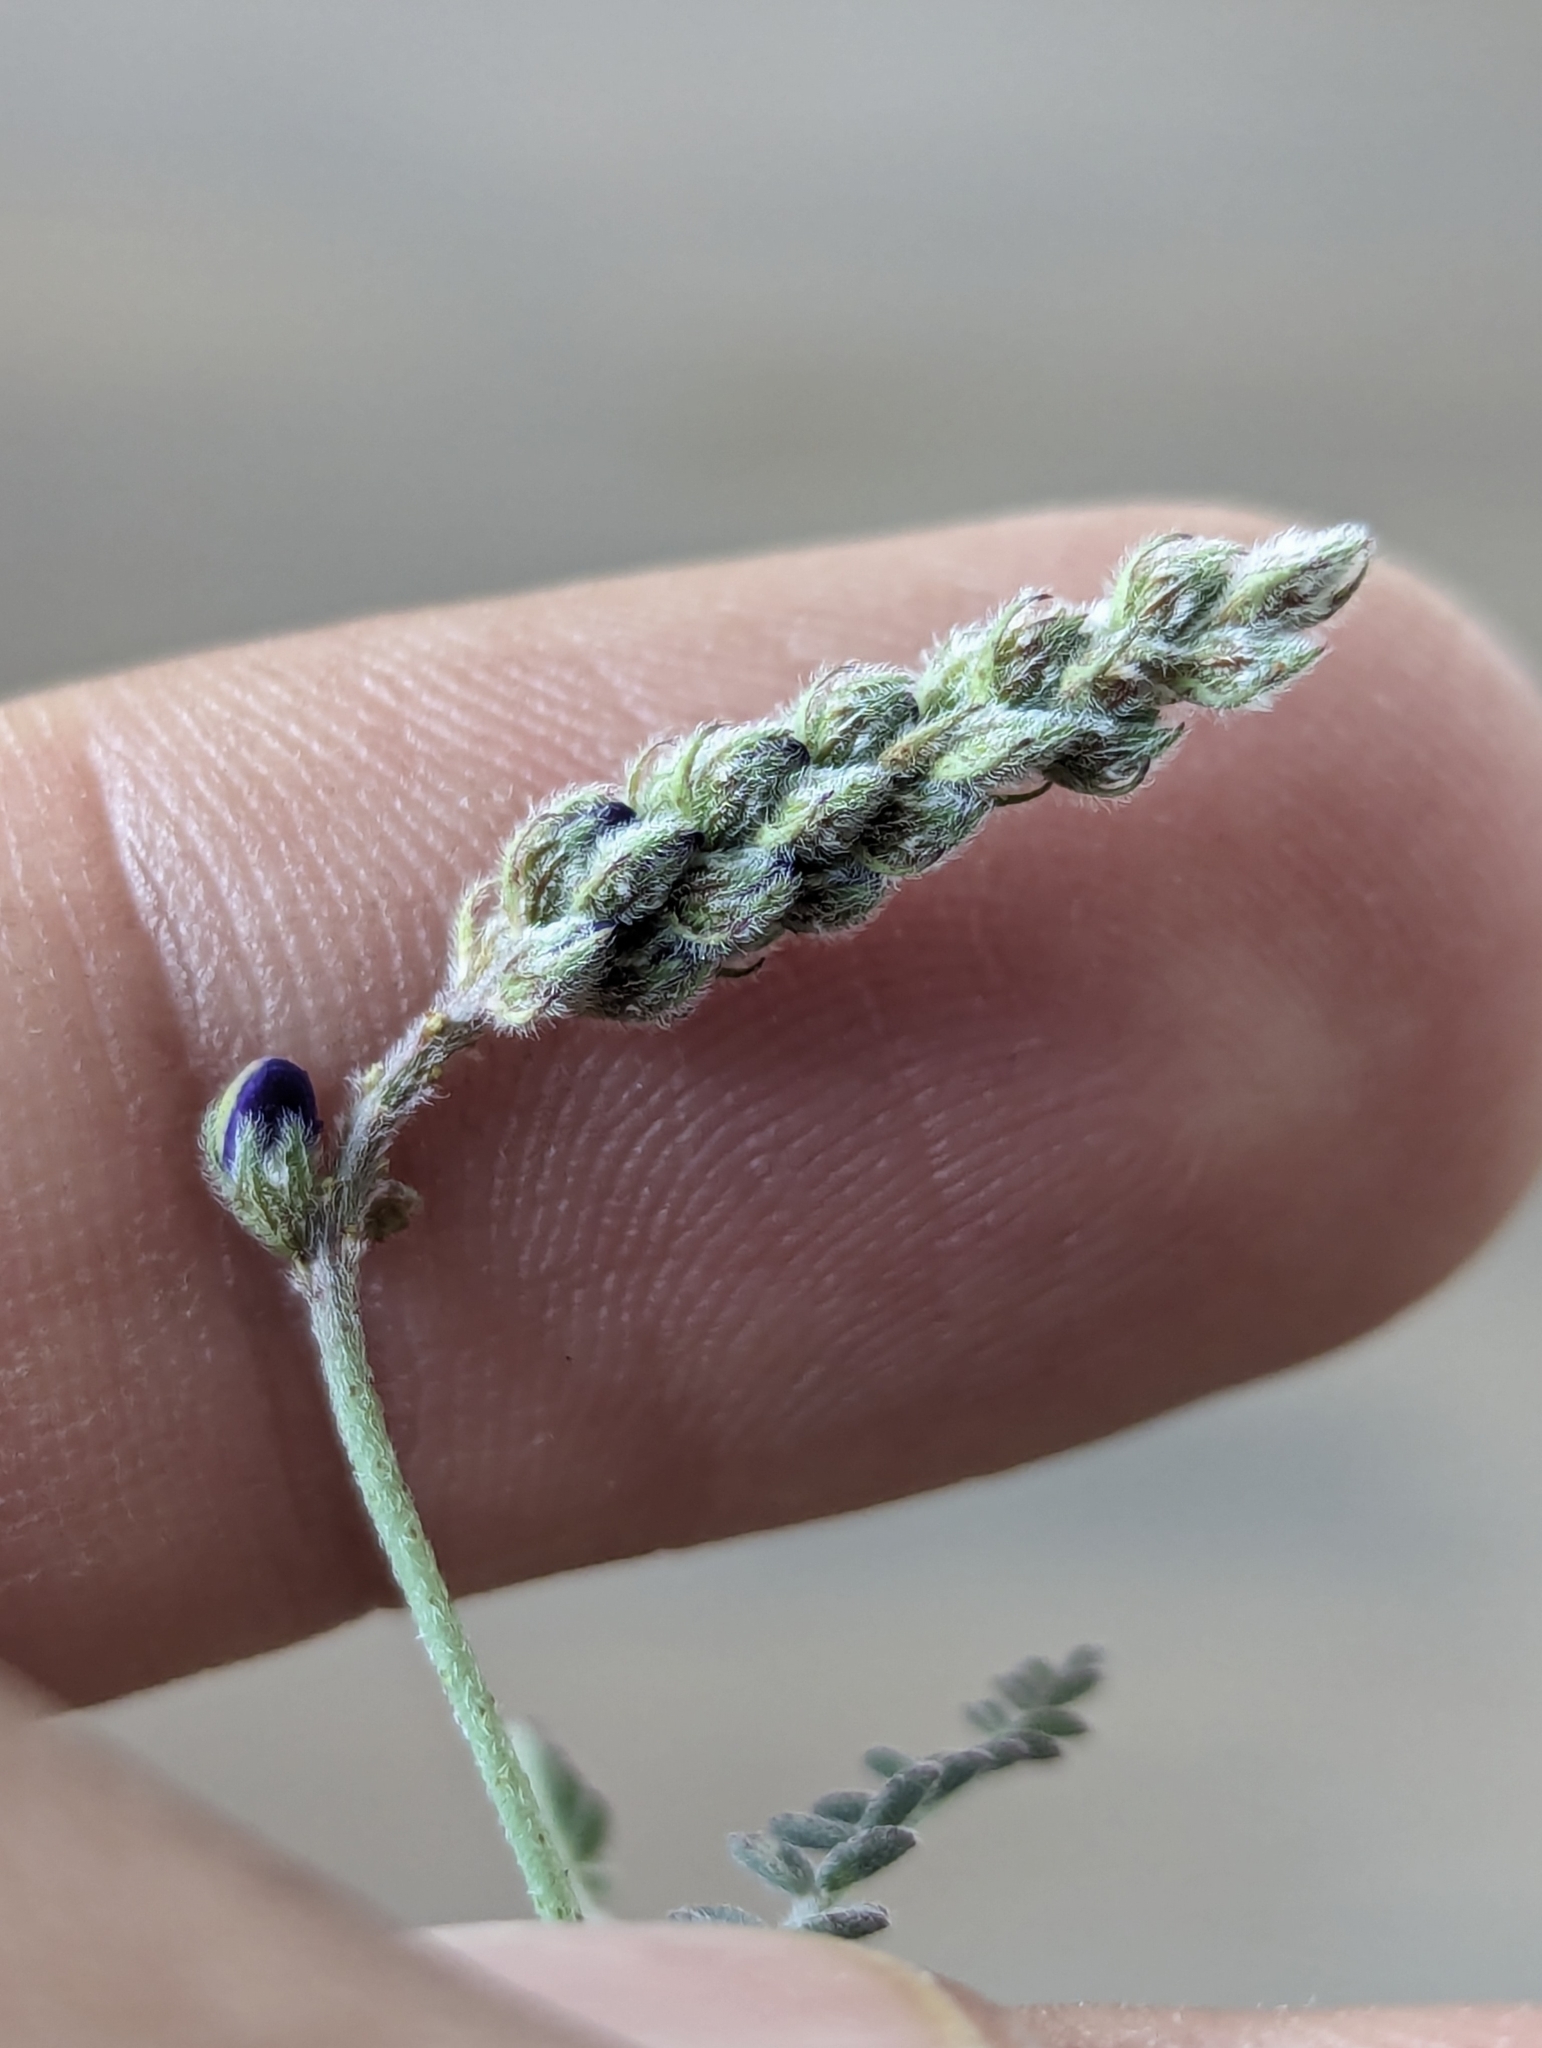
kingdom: Plantae
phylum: Tracheophyta
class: Magnoliopsida
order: Fabales
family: Fabaceae
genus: Marina
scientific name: Marina parryi
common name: Parry's marina
